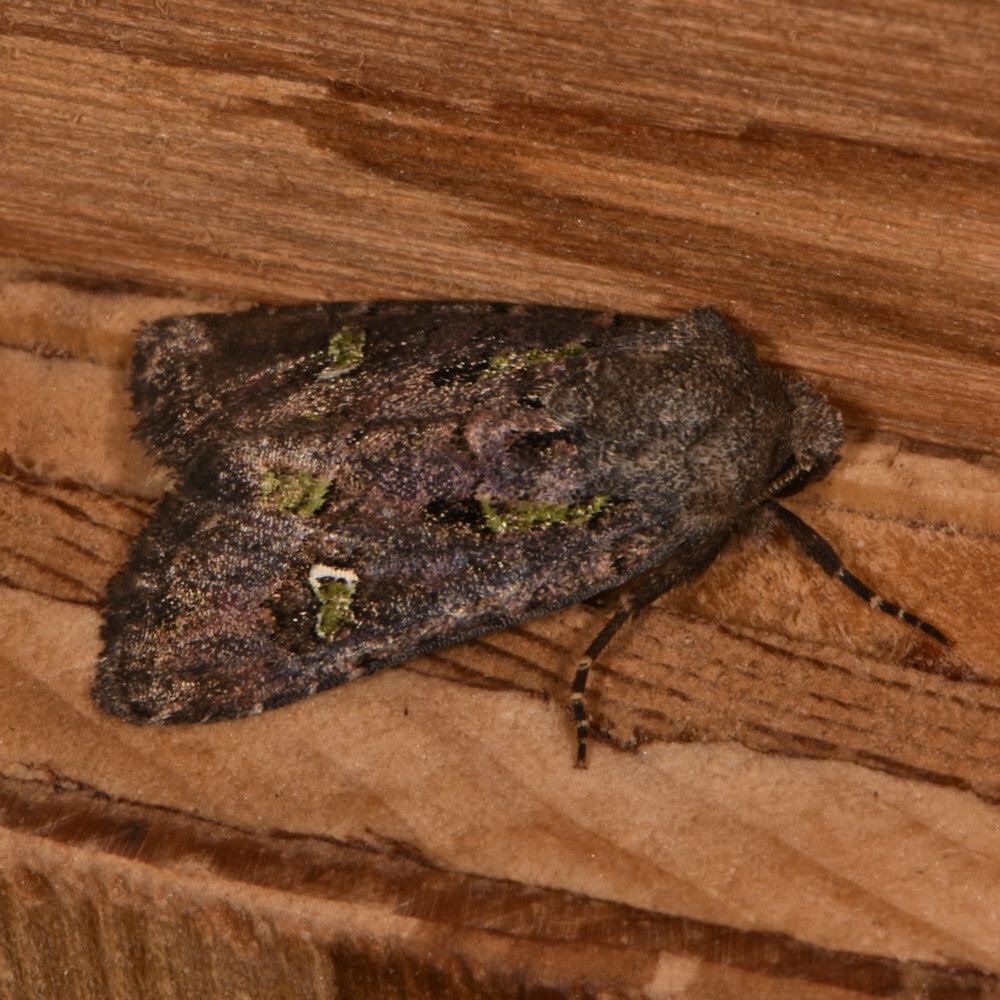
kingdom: Animalia
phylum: Arthropoda
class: Insecta
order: Lepidoptera
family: Noctuidae
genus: Lacinipolia
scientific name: Lacinipolia renigera
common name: Kidney-spotted minor
